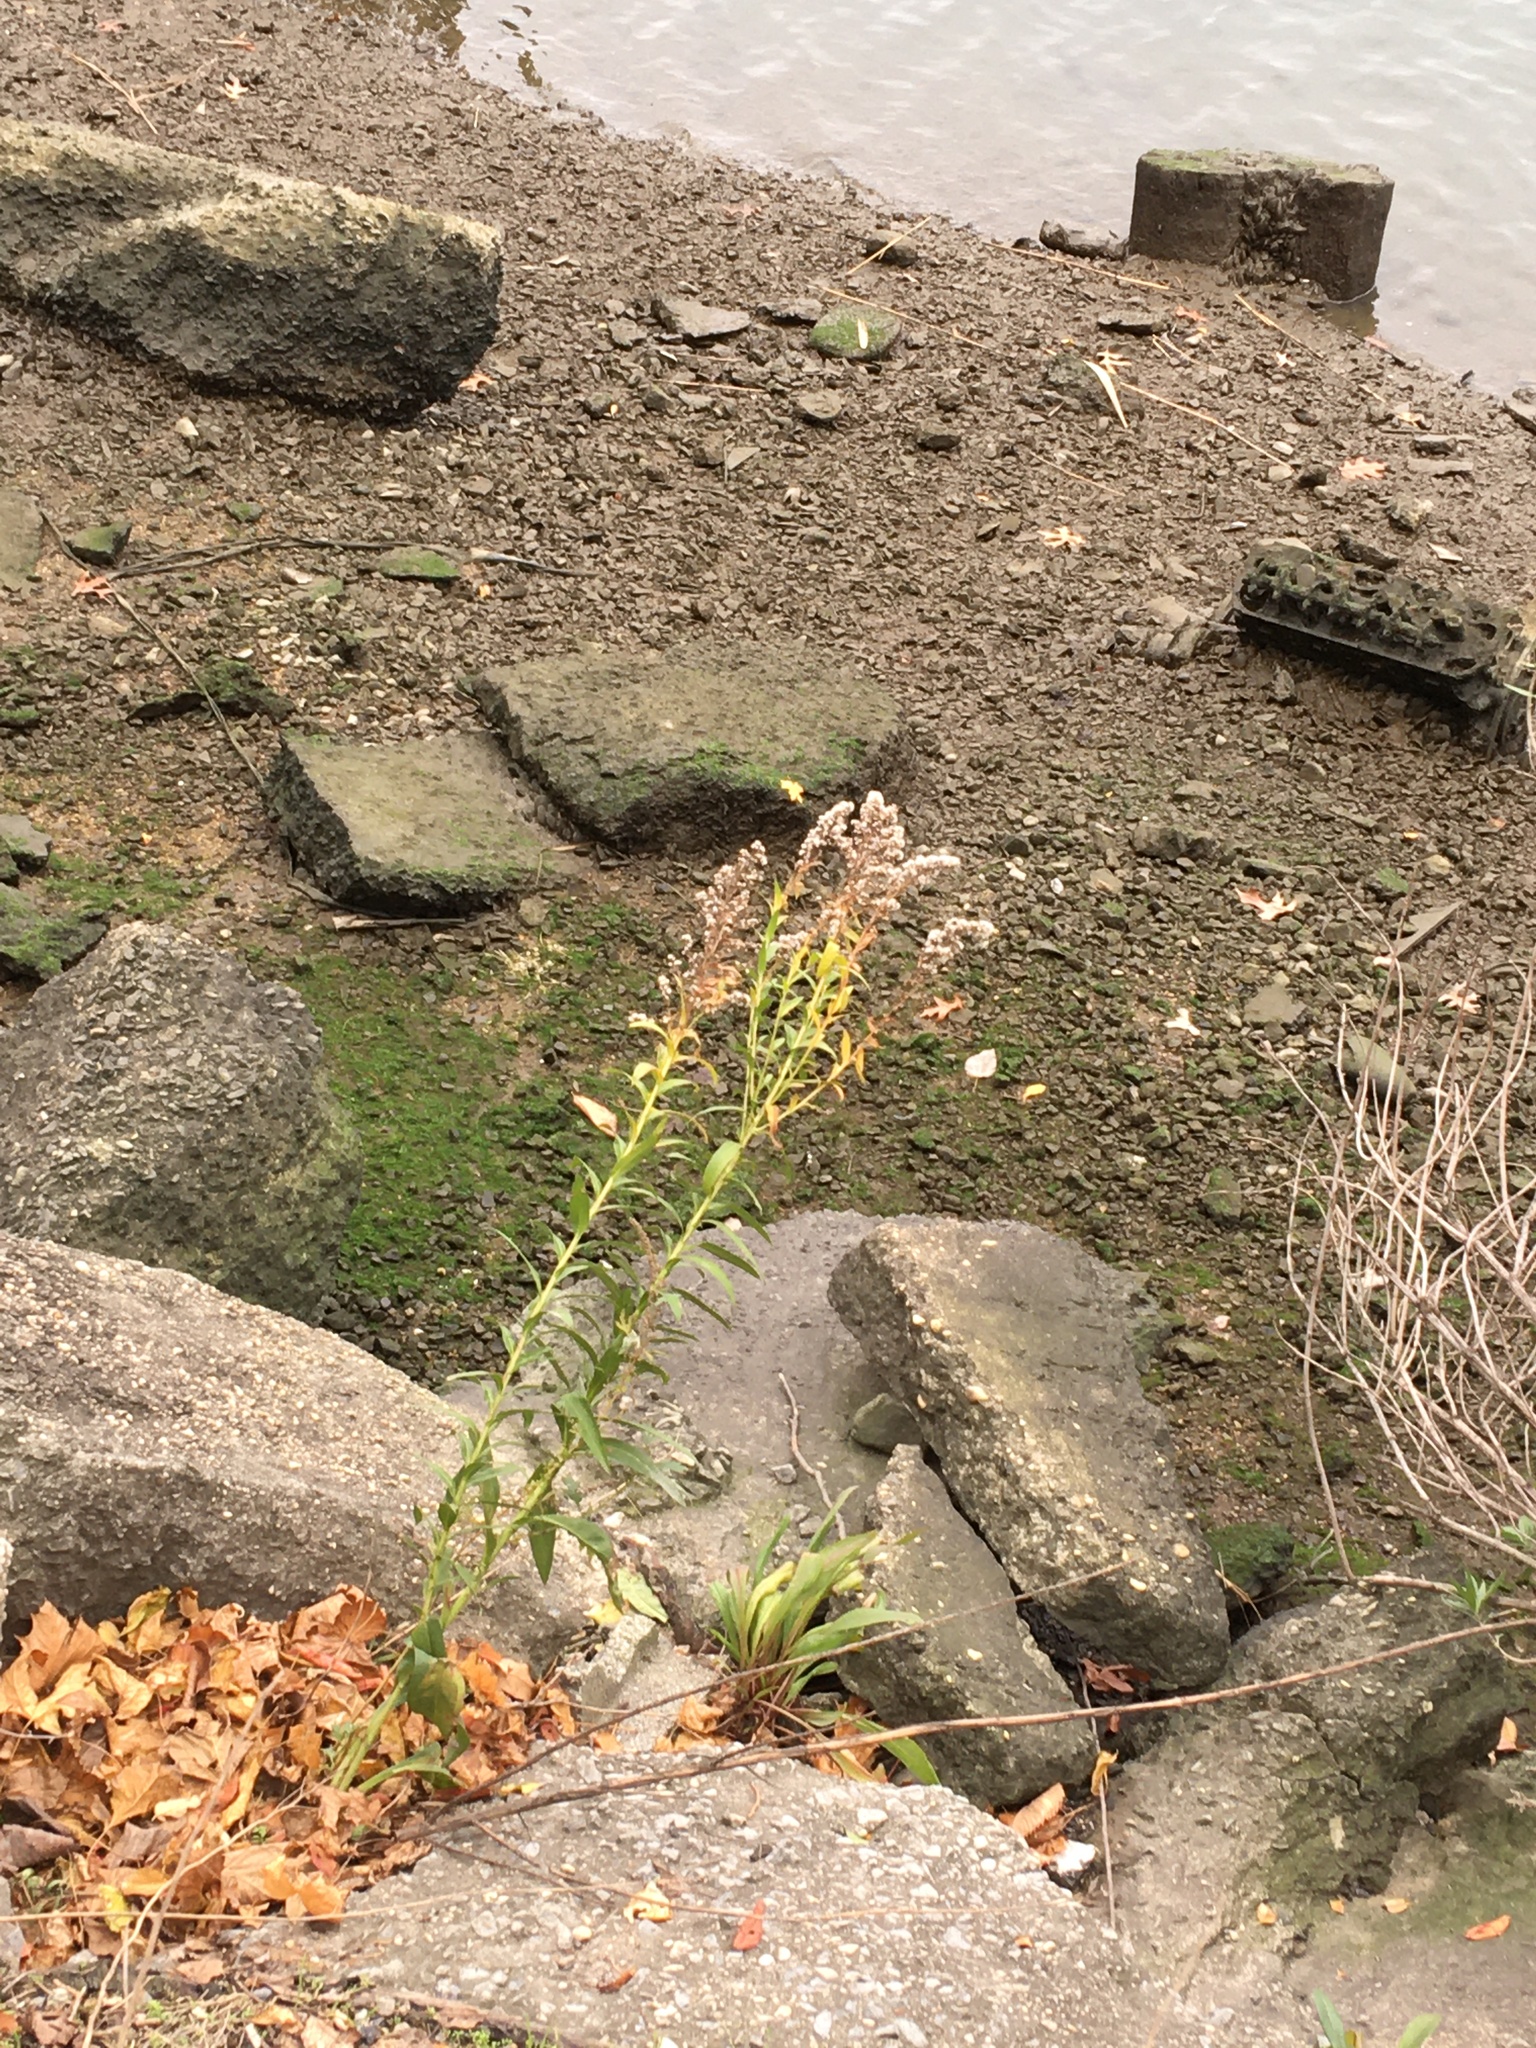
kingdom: Plantae
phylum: Tracheophyta
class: Magnoliopsida
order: Asterales
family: Asteraceae
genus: Solidago
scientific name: Solidago sempervirens
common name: Salt-marsh goldenrod
